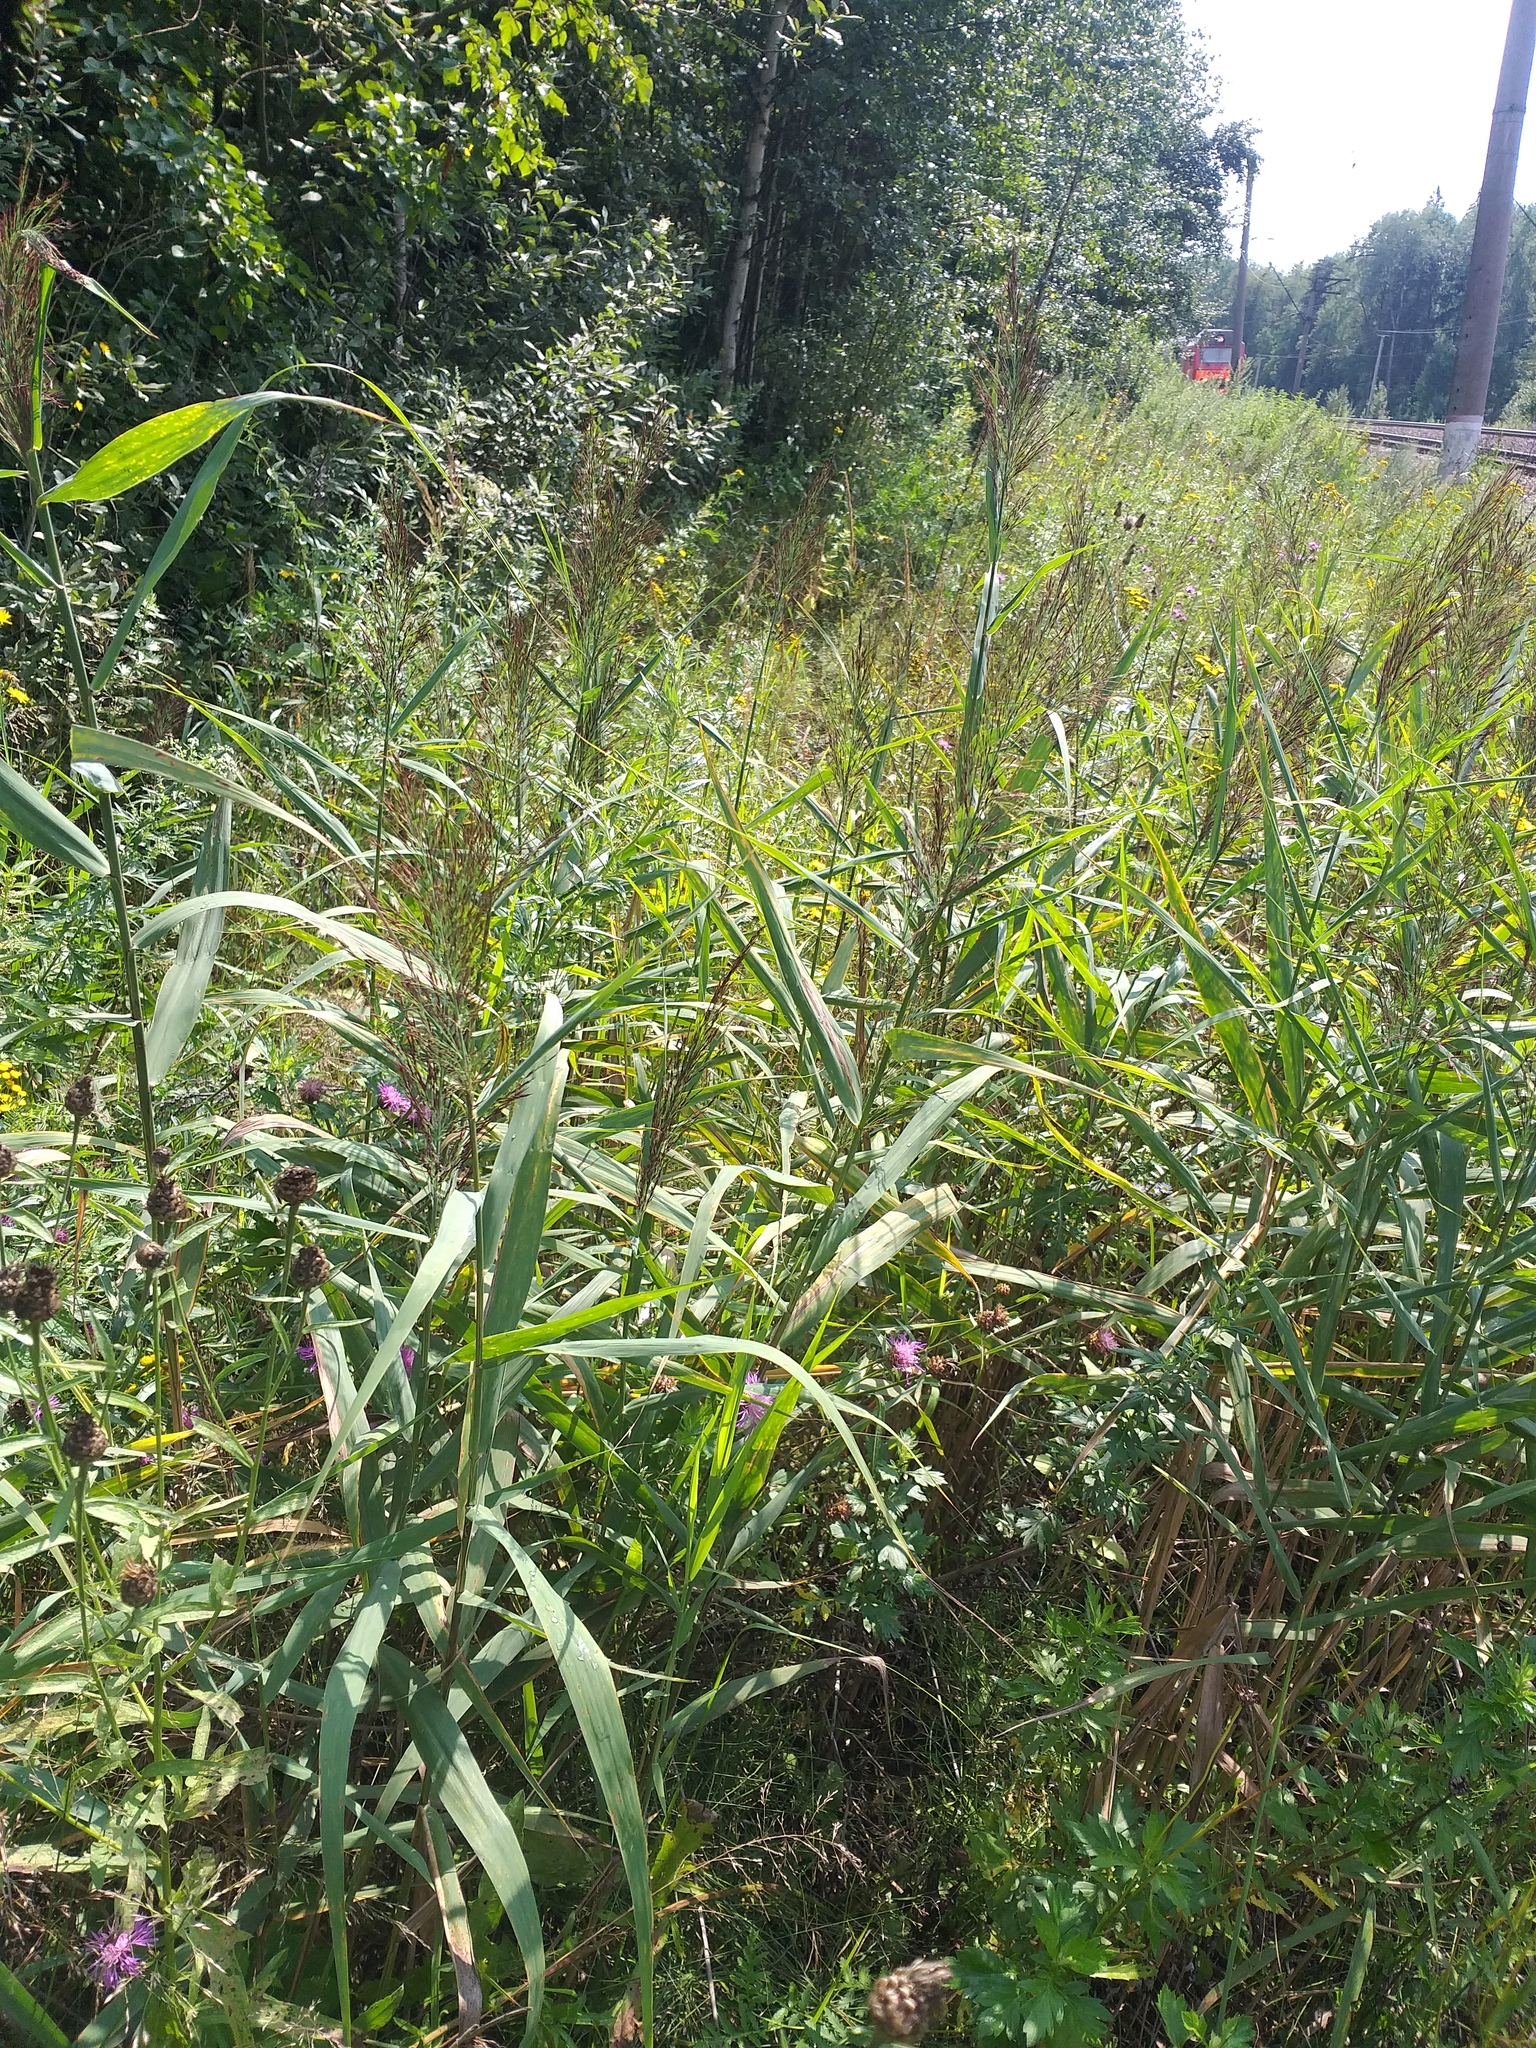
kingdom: Plantae
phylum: Tracheophyta
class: Liliopsida
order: Poales
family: Poaceae
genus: Phragmites
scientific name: Phragmites australis
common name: Common reed
